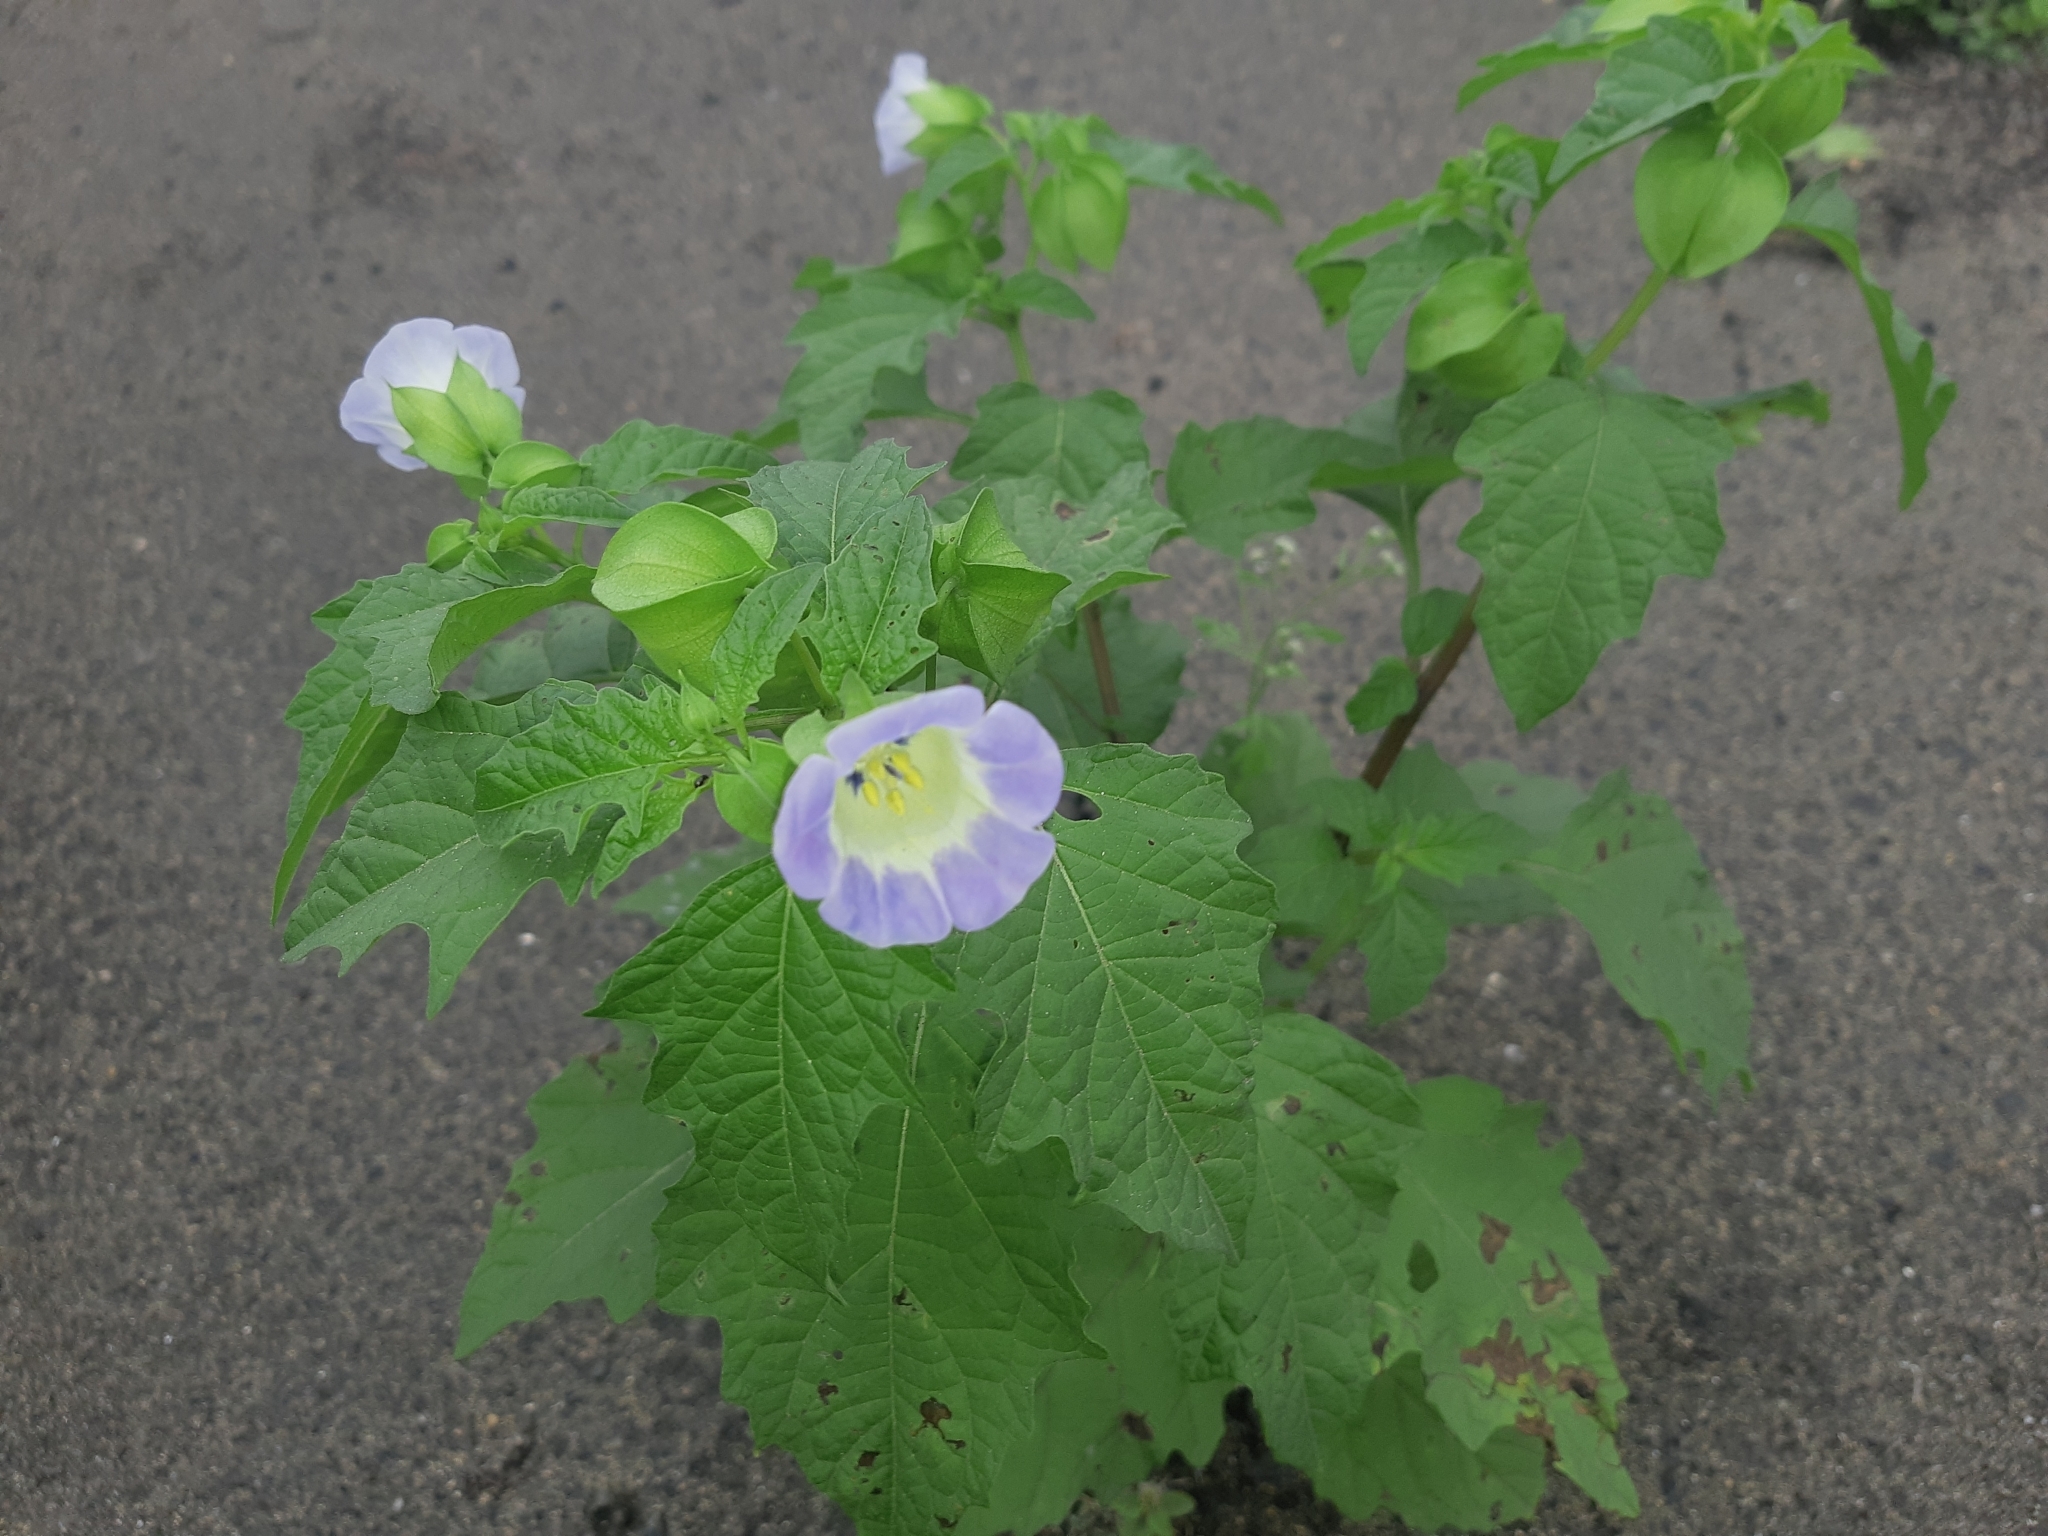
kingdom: Plantae
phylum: Tracheophyta
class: Magnoliopsida
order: Solanales
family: Solanaceae
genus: Nicandra
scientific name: Nicandra physalodes
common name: Apple-of-peru
